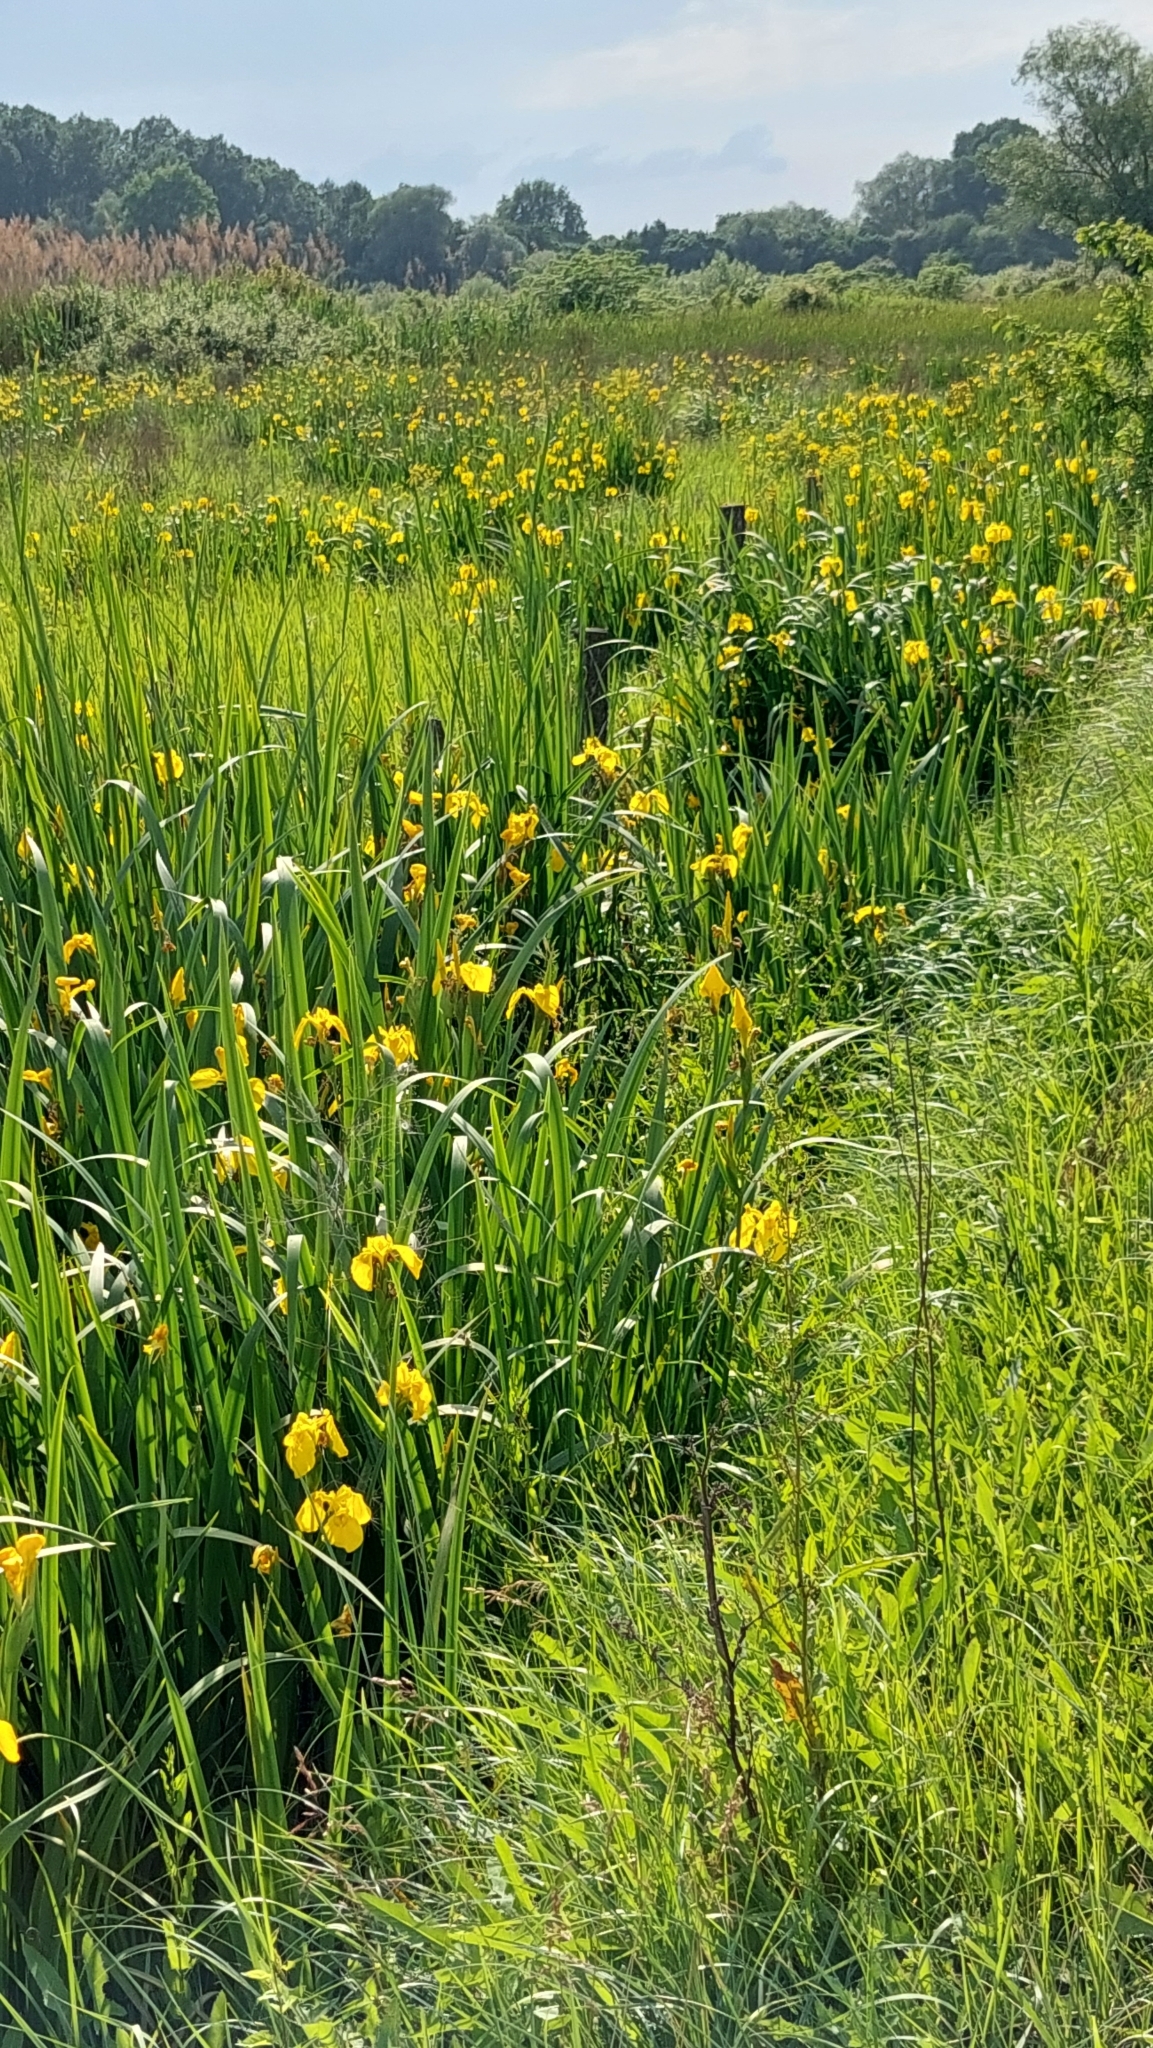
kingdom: Plantae
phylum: Tracheophyta
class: Liliopsida
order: Asparagales
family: Iridaceae
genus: Iris
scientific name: Iris pseudacorus
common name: Yellow flag
